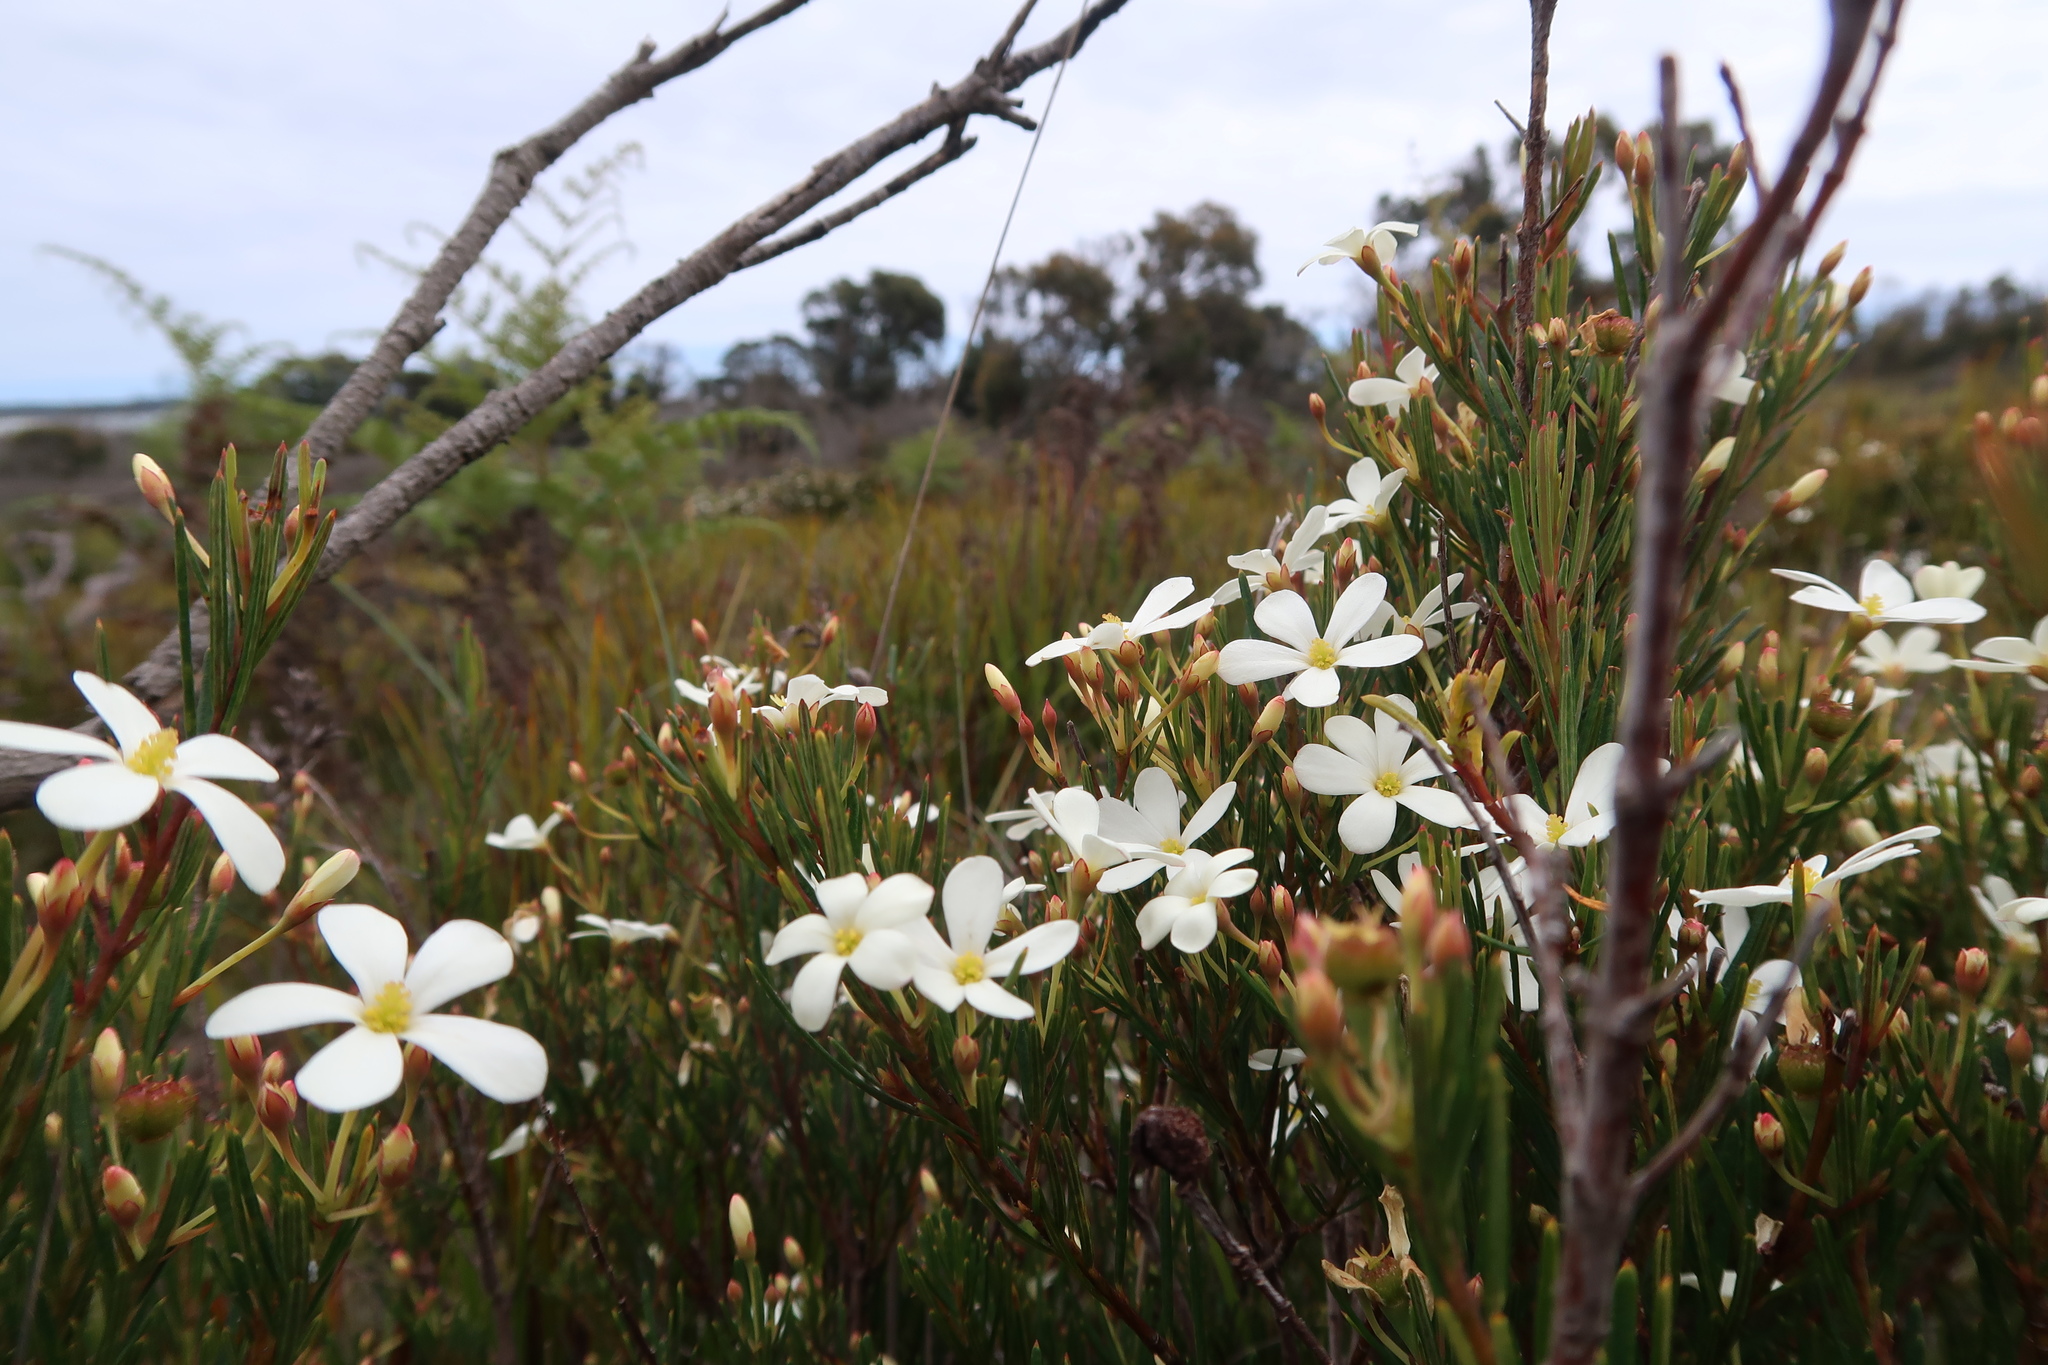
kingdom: Plantae
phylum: Tracheophyta
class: Magnoliopsida
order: Malpighiales
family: Euphorbiaceae
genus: Ricinocarpos
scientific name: Ricinocarpos pinifolius
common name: Weddingbush
